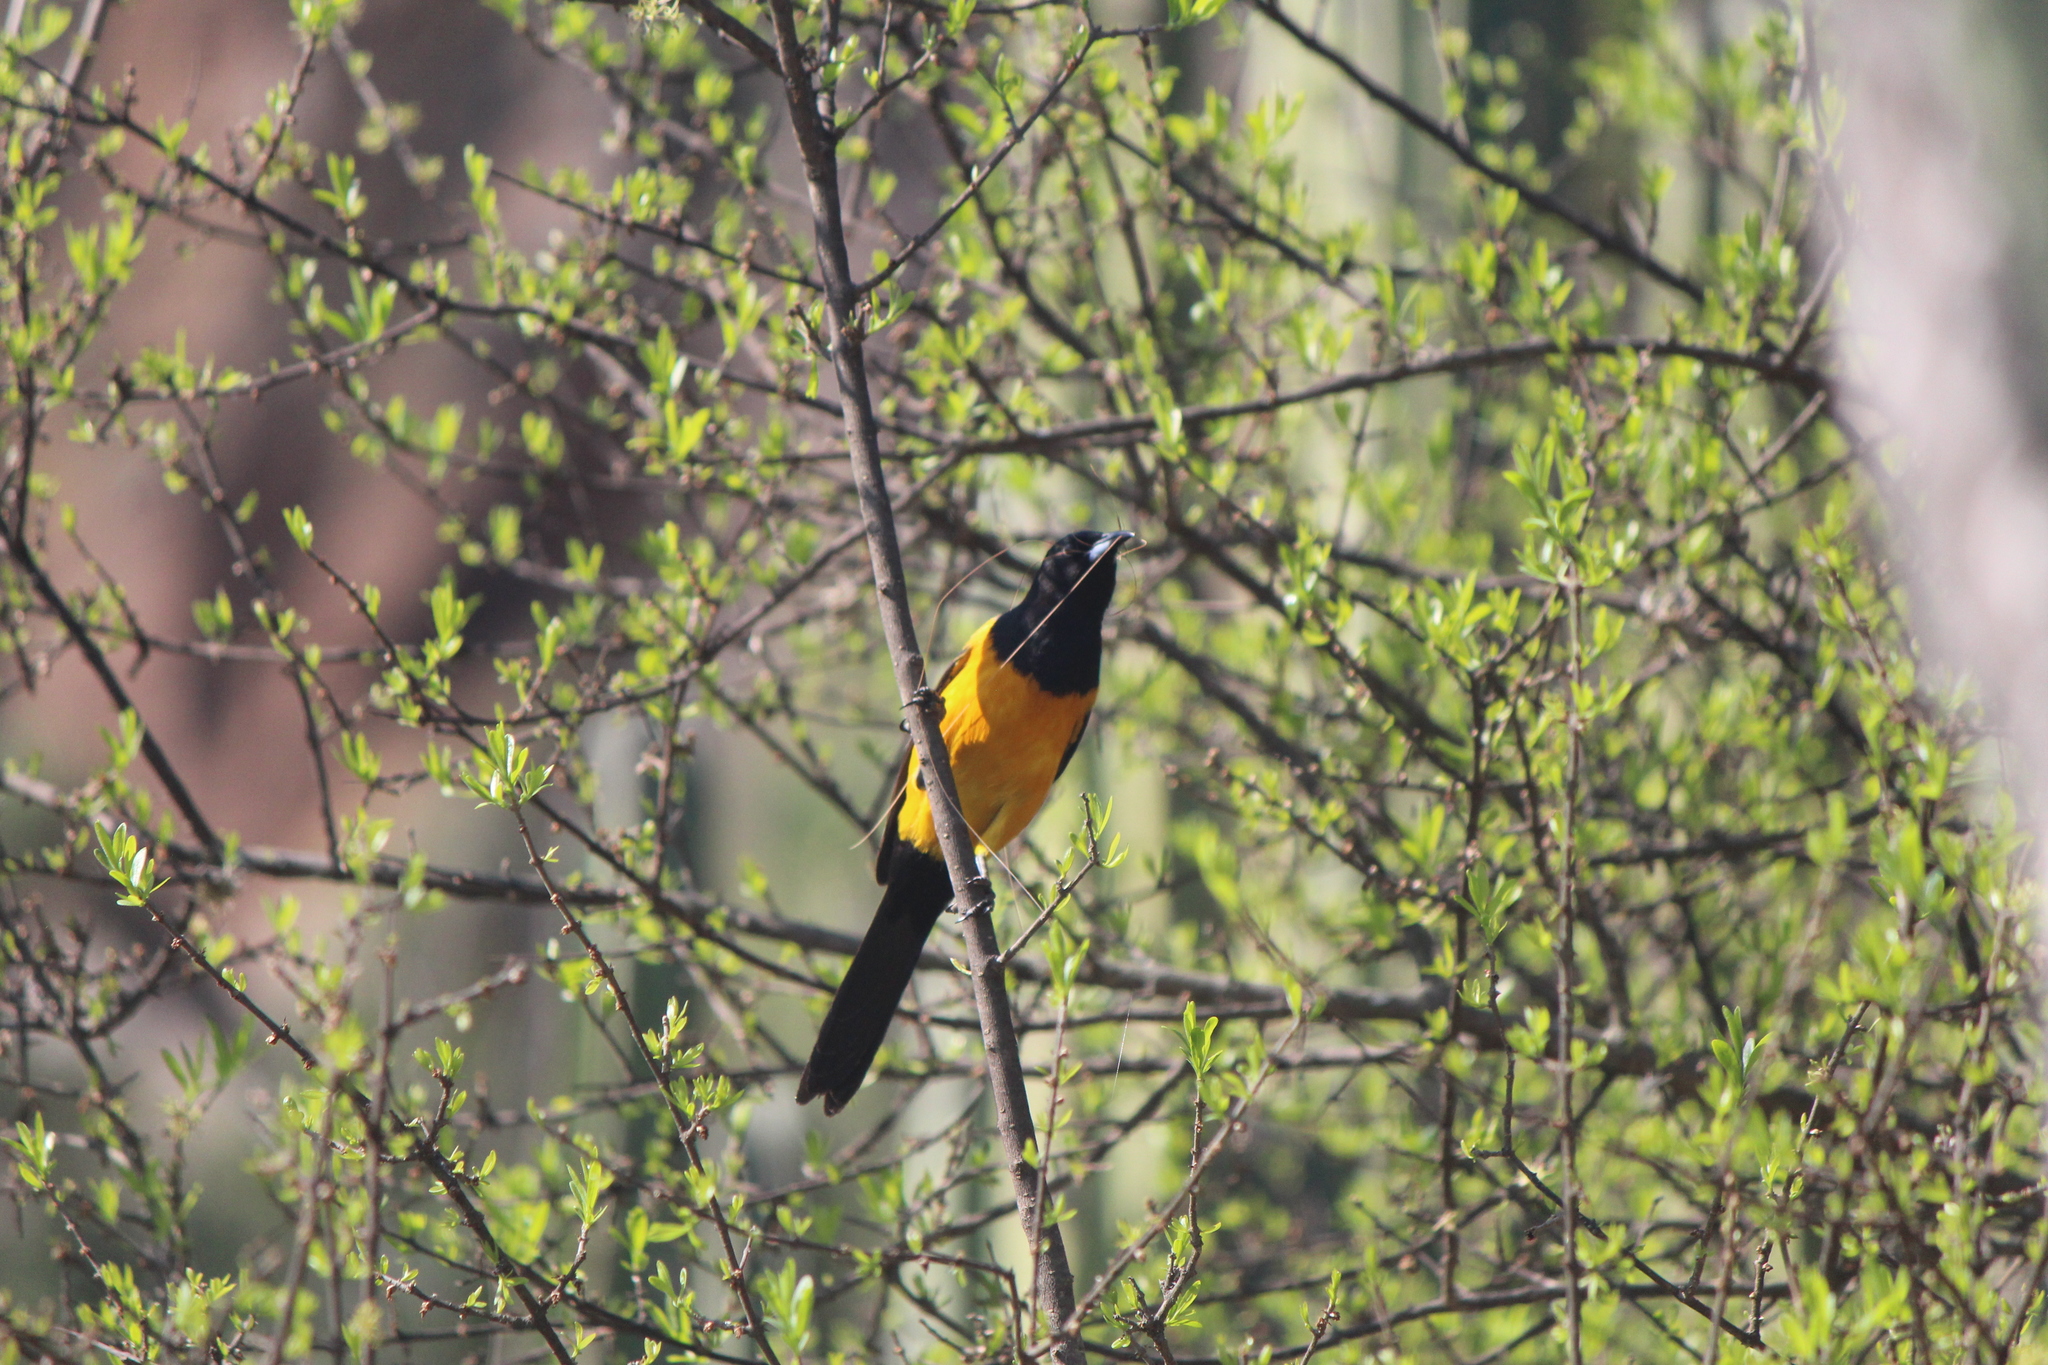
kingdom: Animalia
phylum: Chordata
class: Aves
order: Passeriformes
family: Icteridae
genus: Icterus
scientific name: Icterus wagleri
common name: Black-vented oriole
